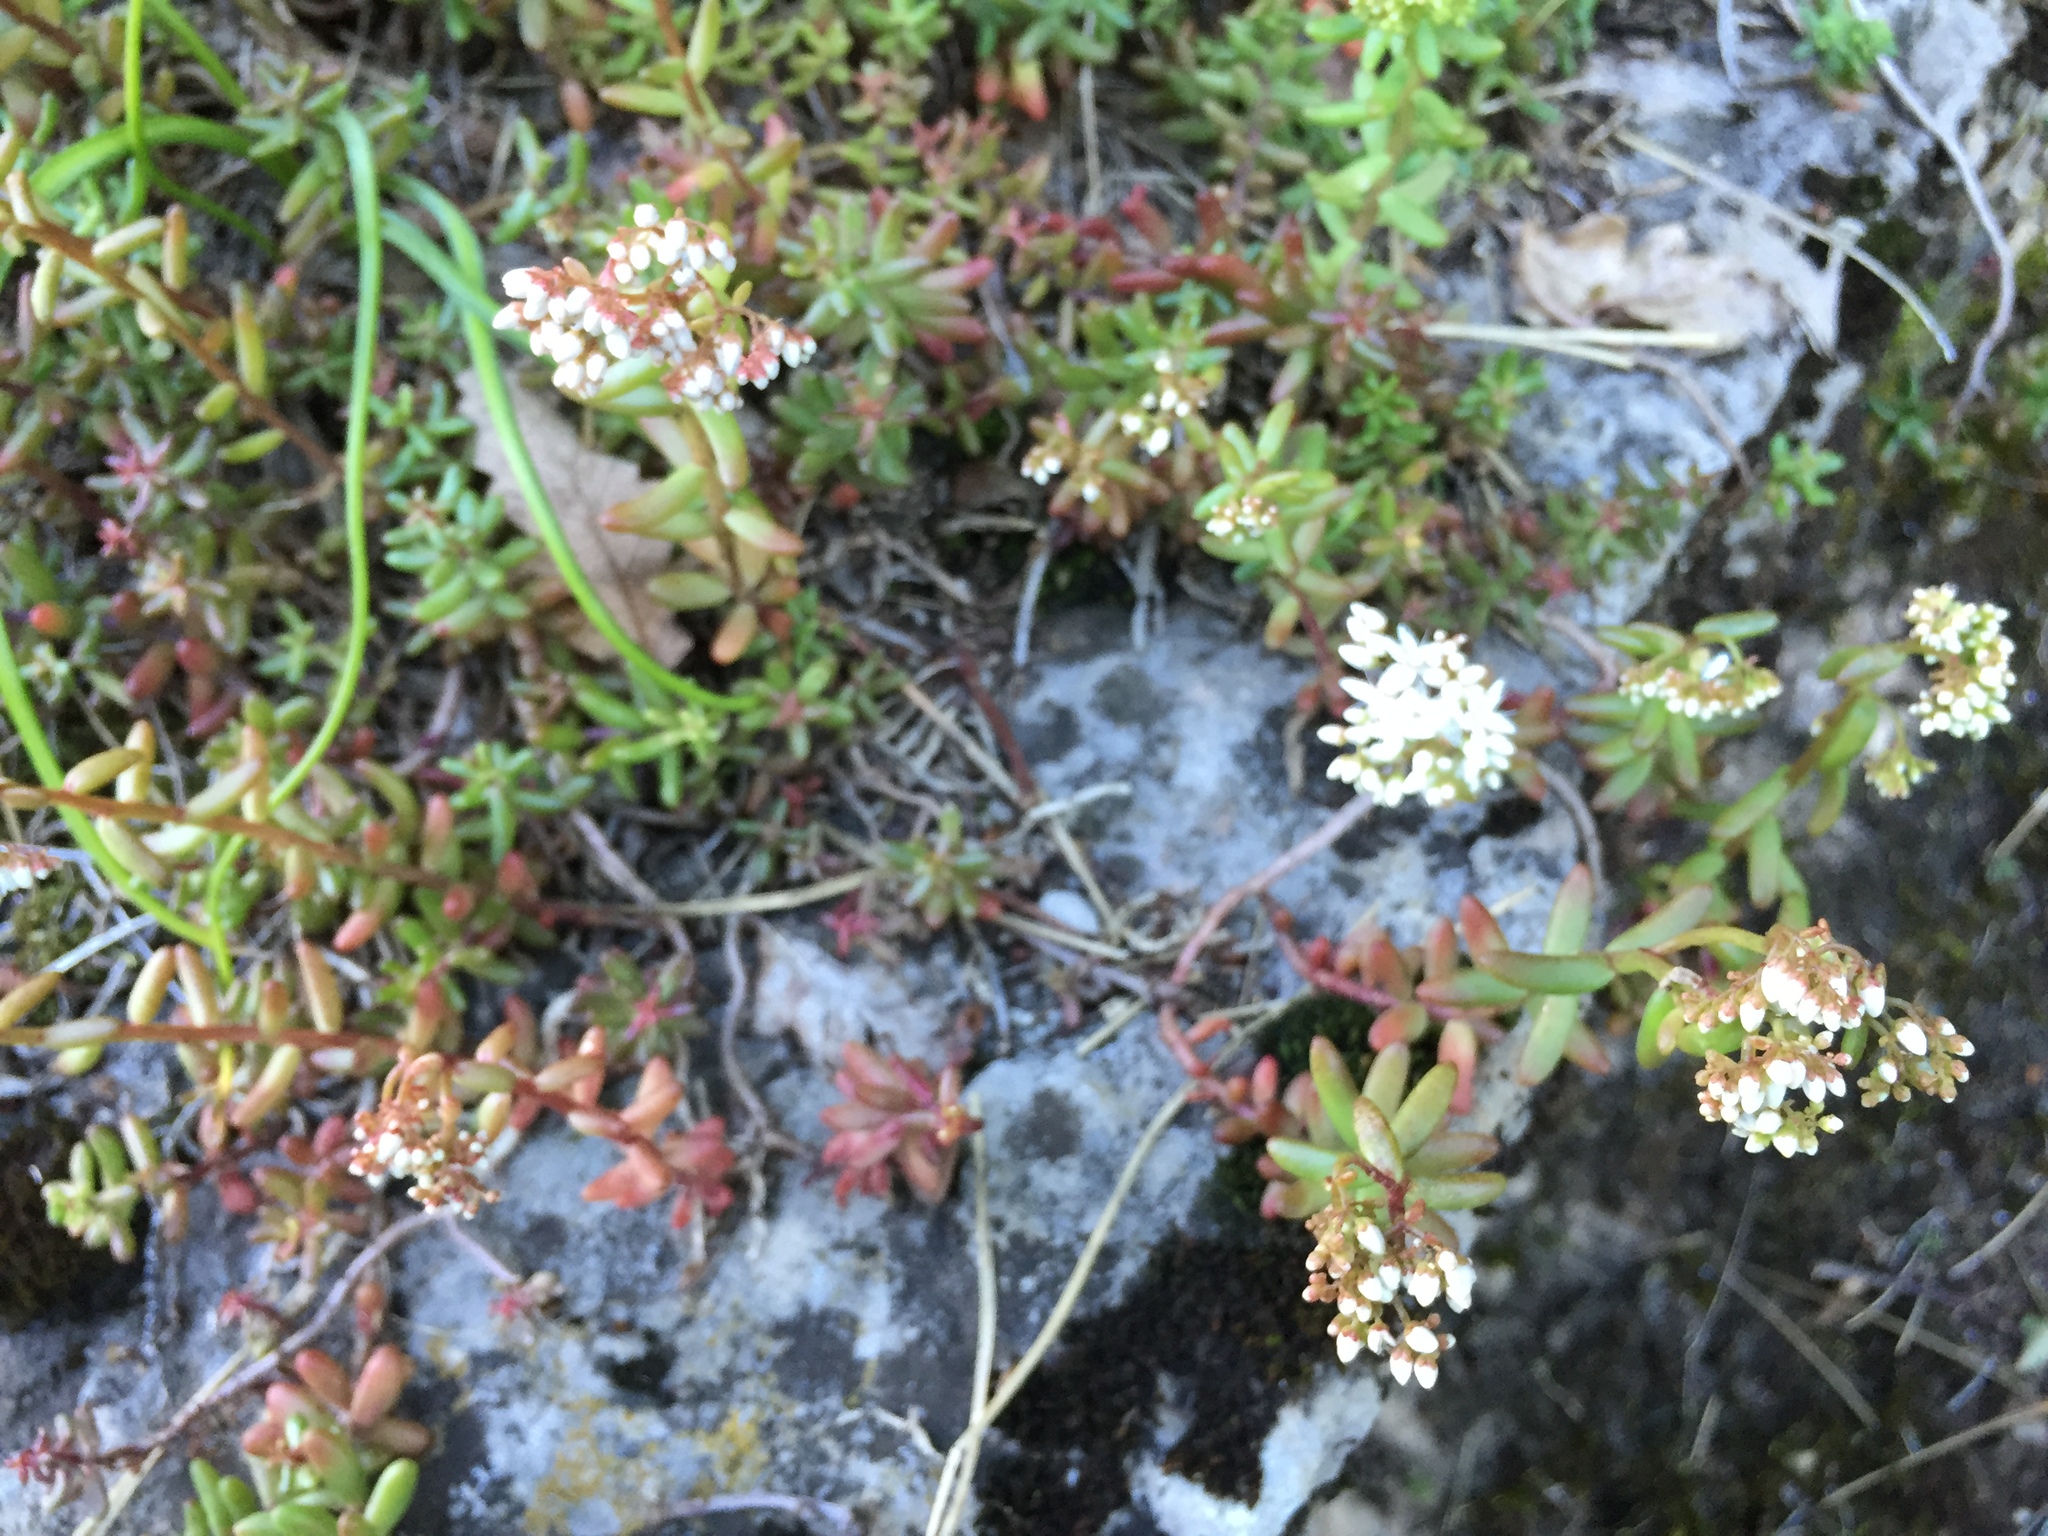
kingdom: Plantae
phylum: Tracheophyta
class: Magnoliopsida
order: Saxifragales
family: Crassulaceae
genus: Sedum
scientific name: Sedum album
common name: White stonecrop
